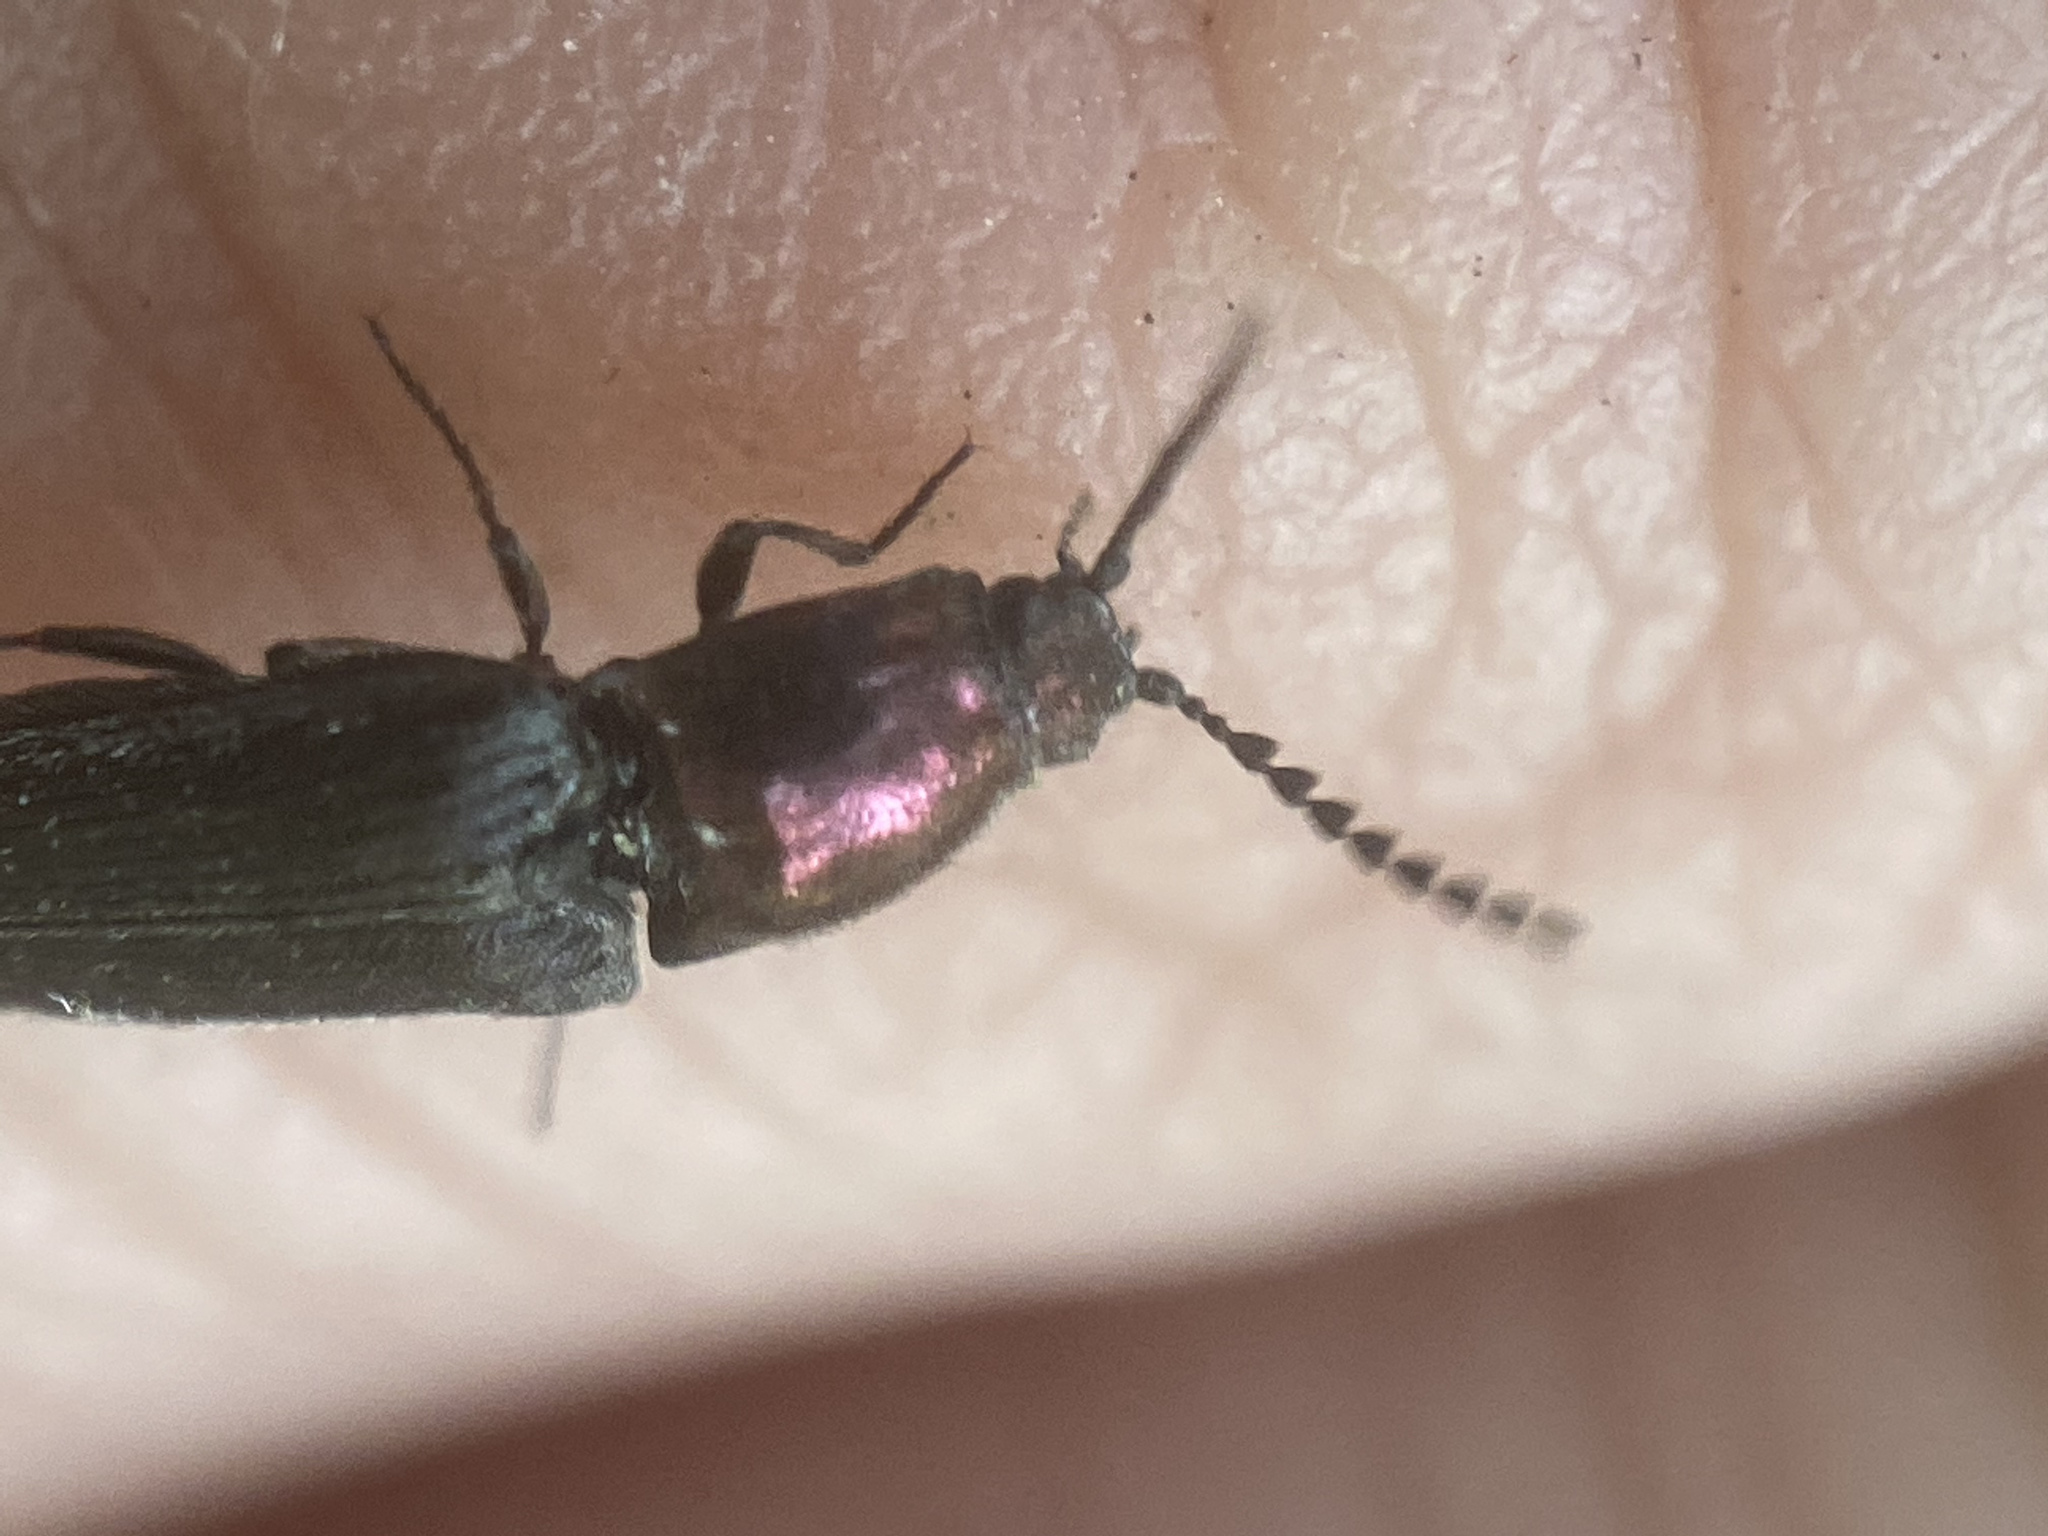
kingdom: Animalia
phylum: Arthropoda
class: Insecta
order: Coleoptera
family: Elateridae
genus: Limonius
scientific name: Limonius aurifer
